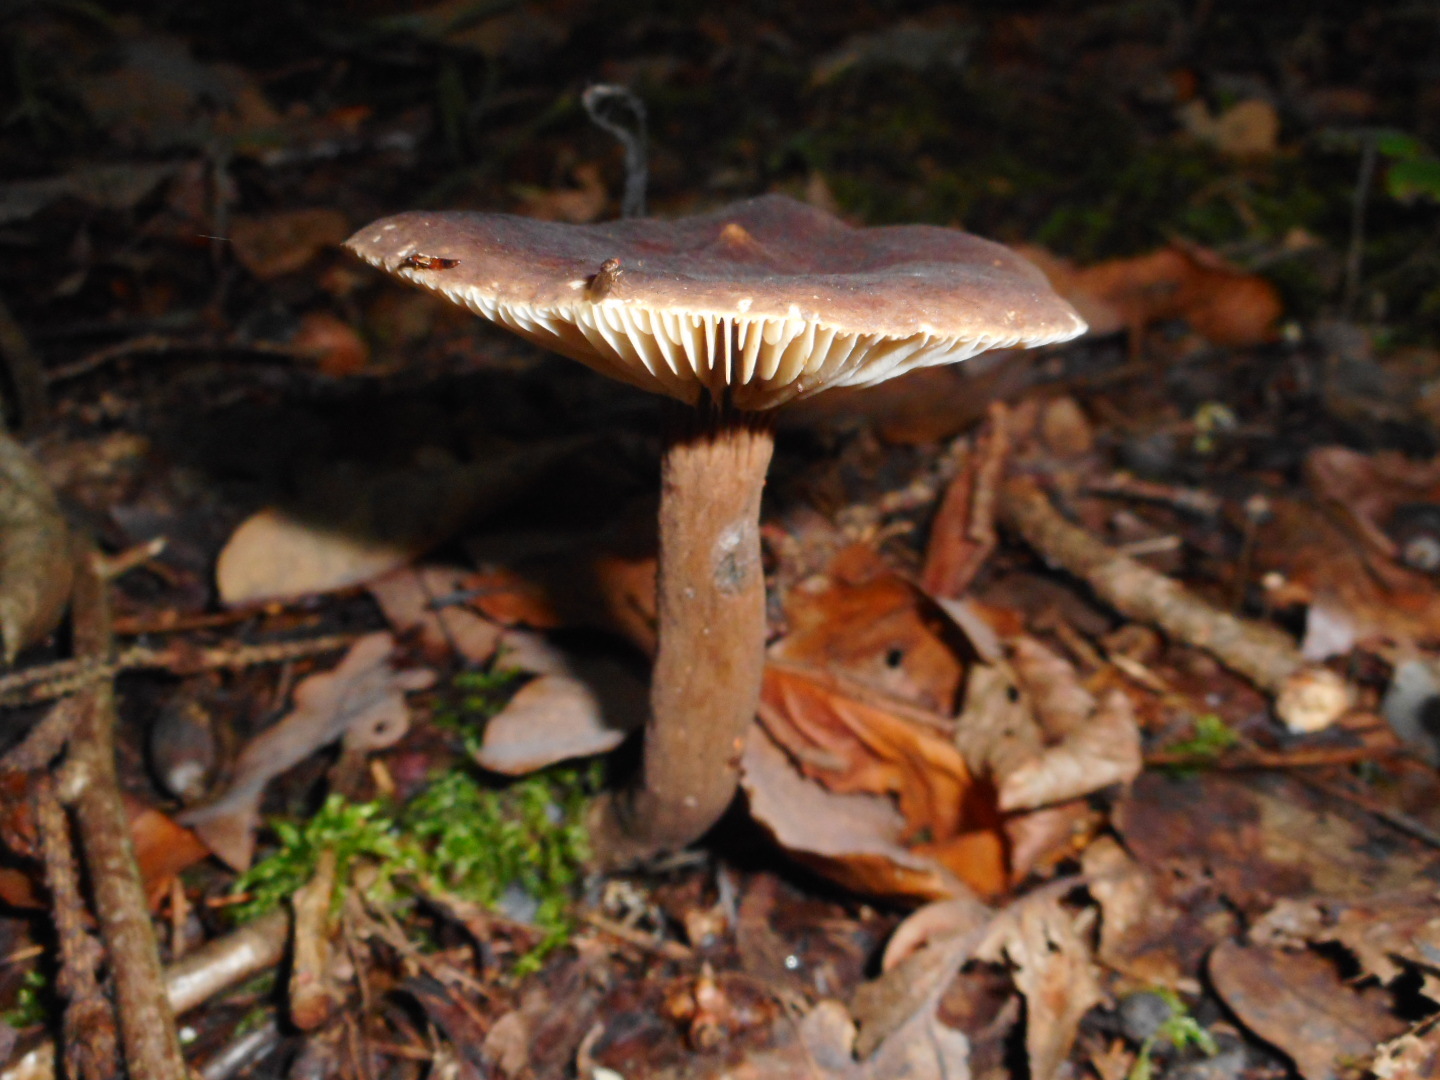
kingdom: Fungi
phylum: Basidiomycota
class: Agaricomycetes
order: Russulales
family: Russulaceae
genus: Lactarius
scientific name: Lactarius lignyotus
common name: Velvet milkcap
